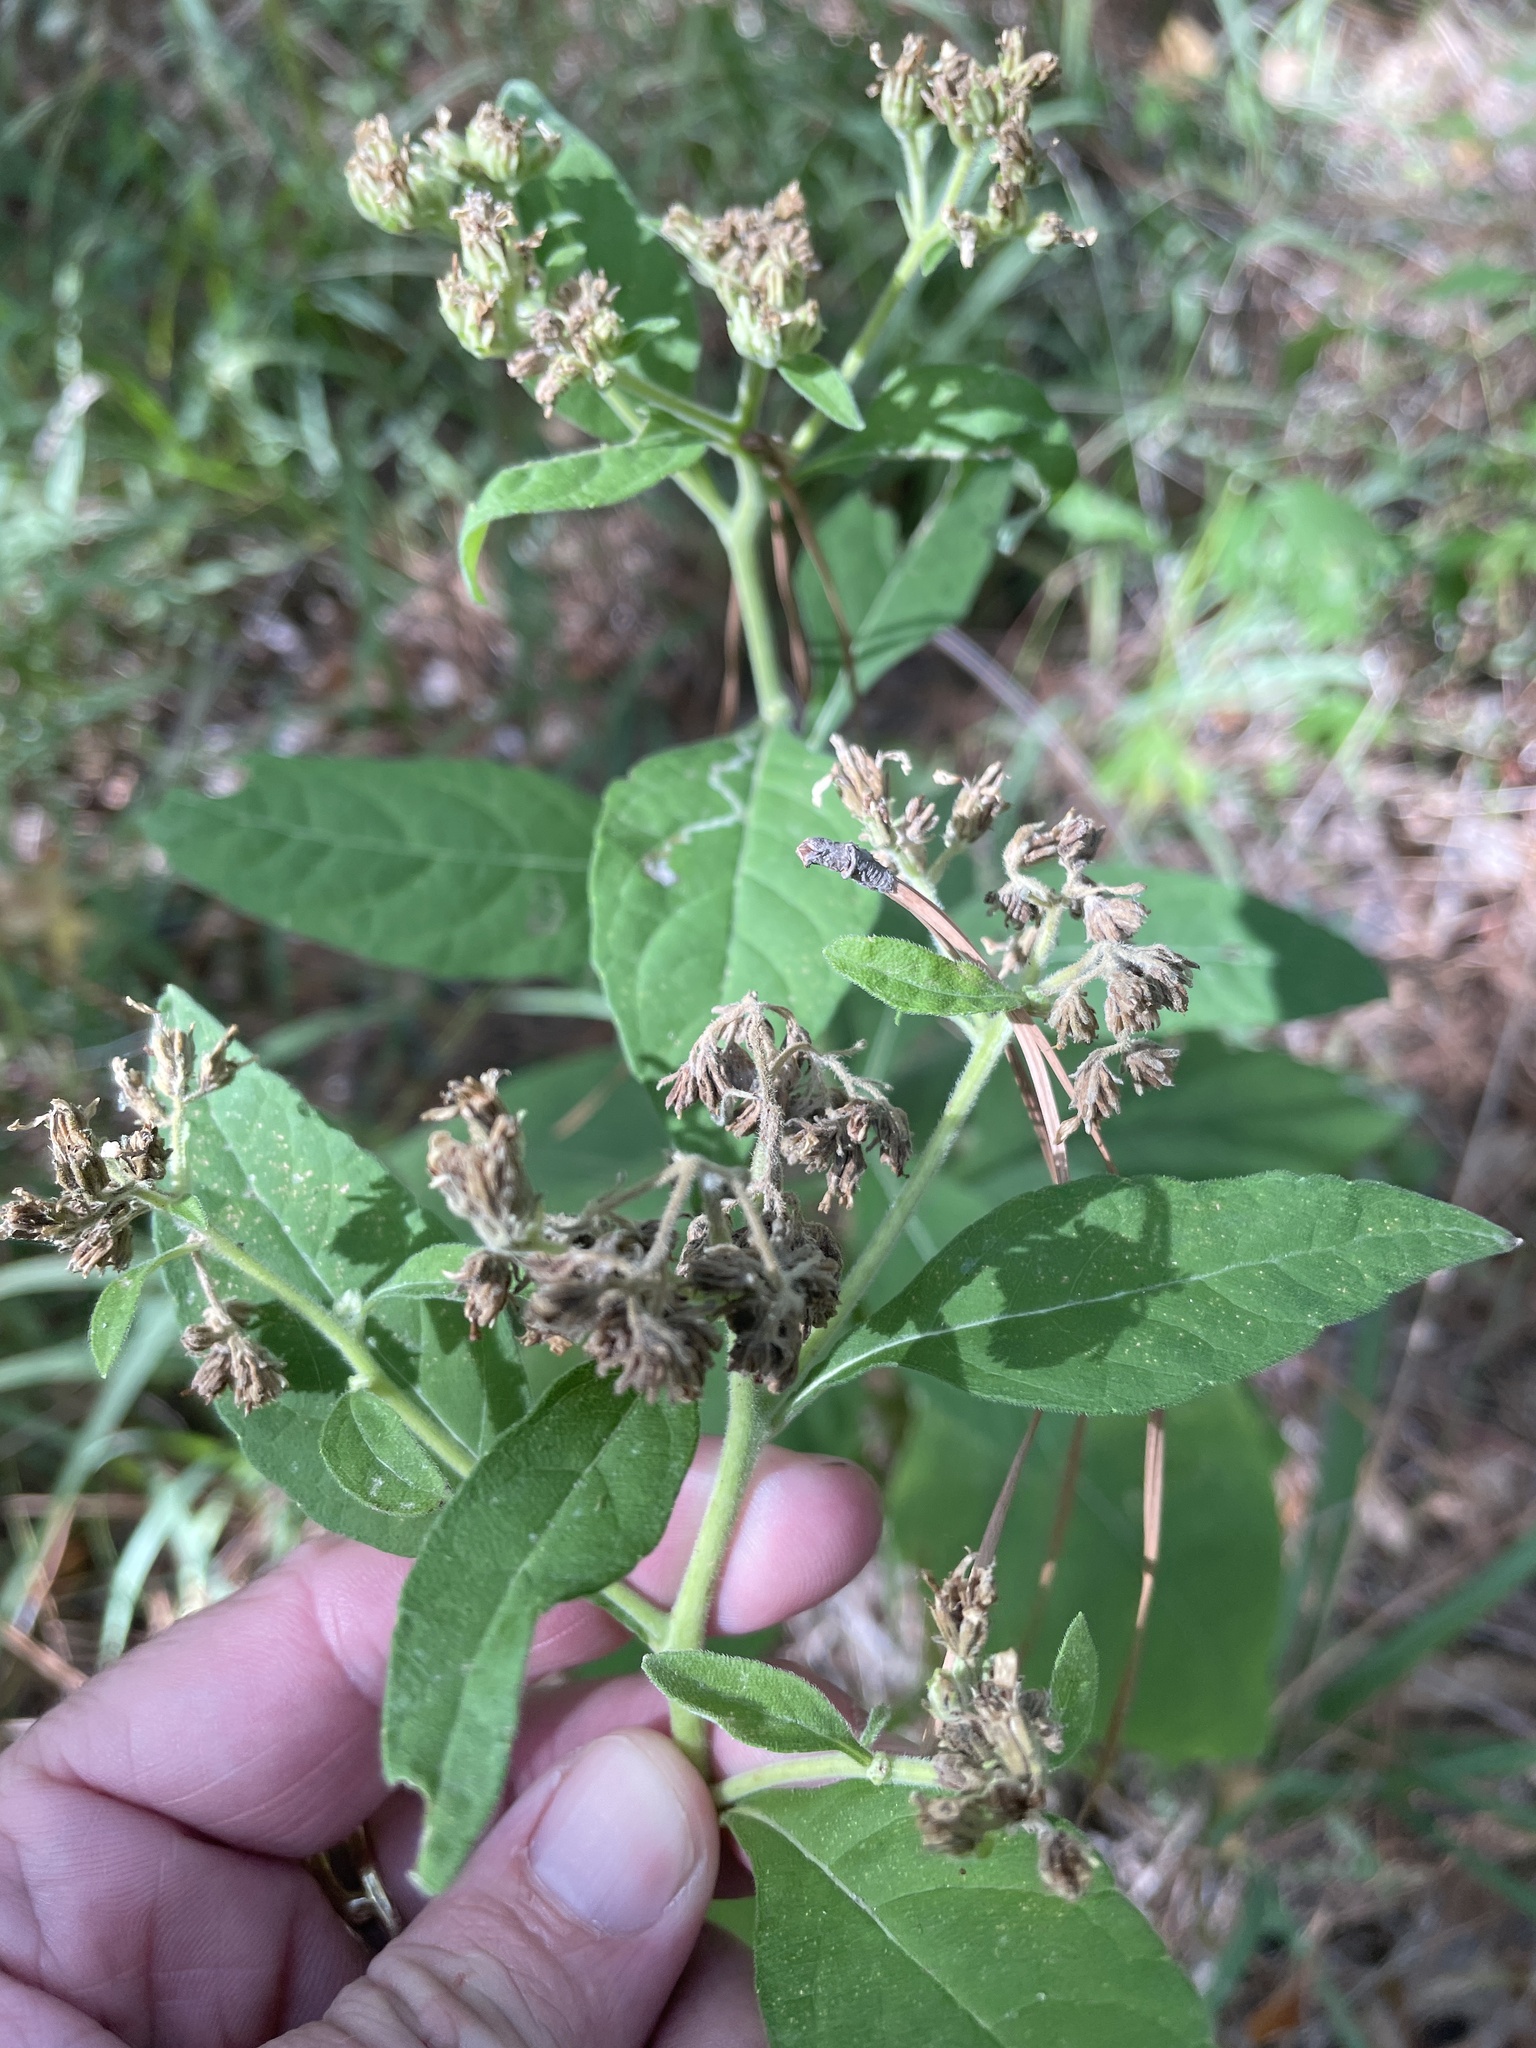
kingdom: Plantae
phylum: Tracheophyta
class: Magnoliopsida
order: Asterales
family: Asteraceae
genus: Verbesina
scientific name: Verbesina virginica
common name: Frostweed
